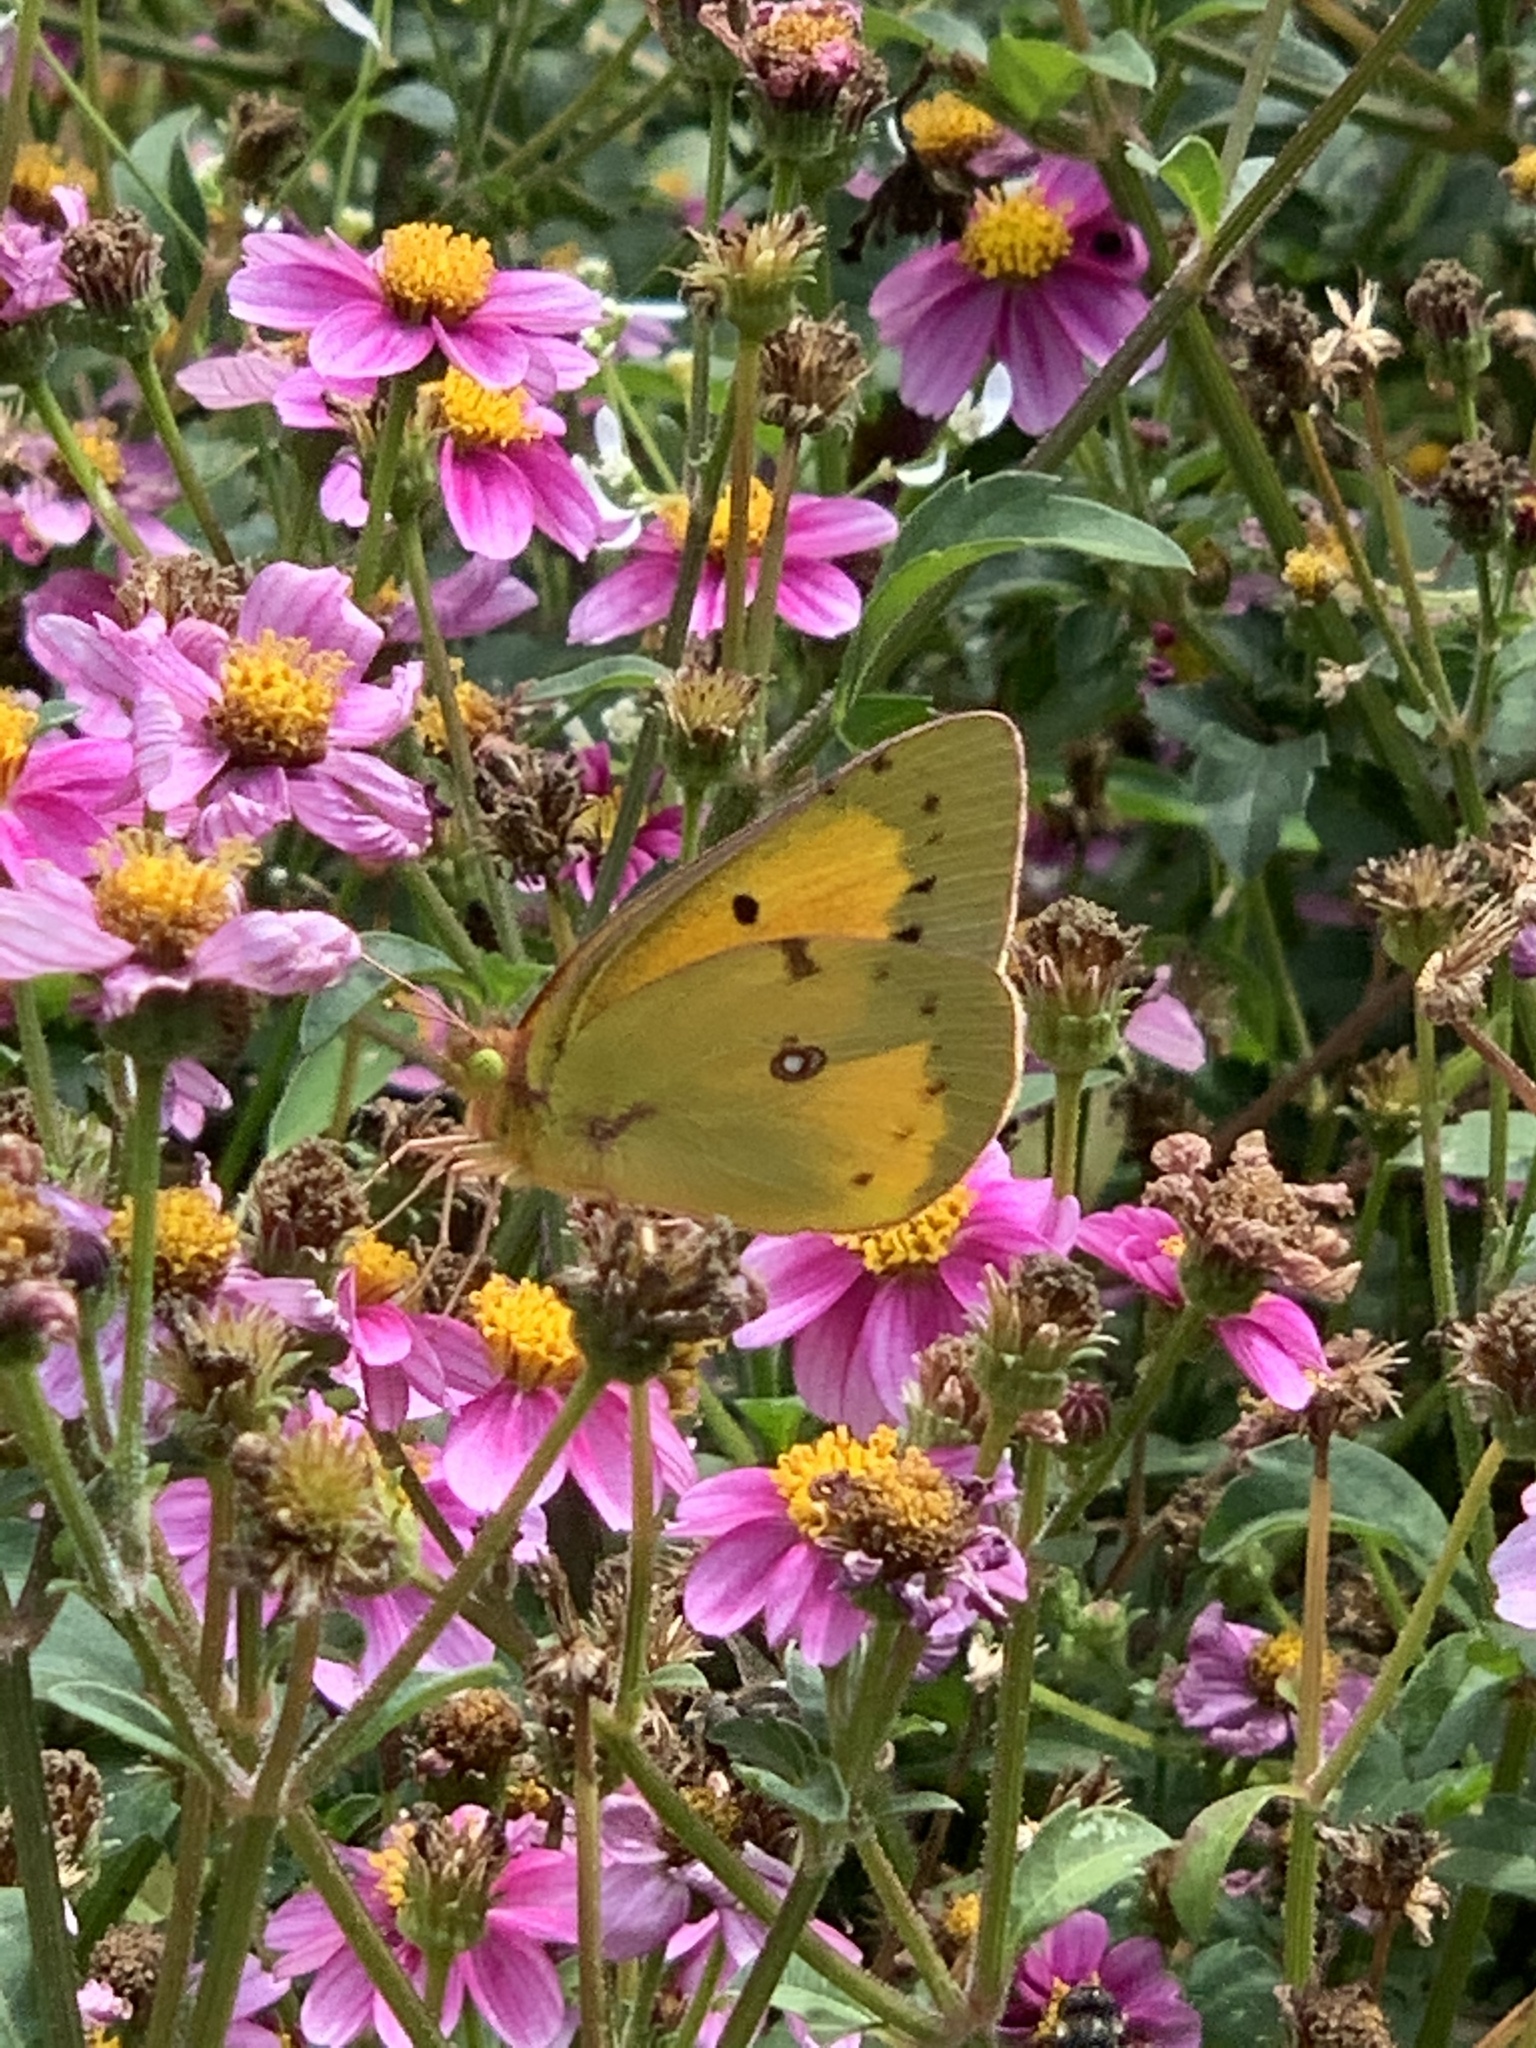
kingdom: Animalia
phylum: Arthropoda
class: Insecta
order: Lepidoptera
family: Pieridae
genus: Colias
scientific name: Colias eurytheme
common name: Alfalfa butterfly
